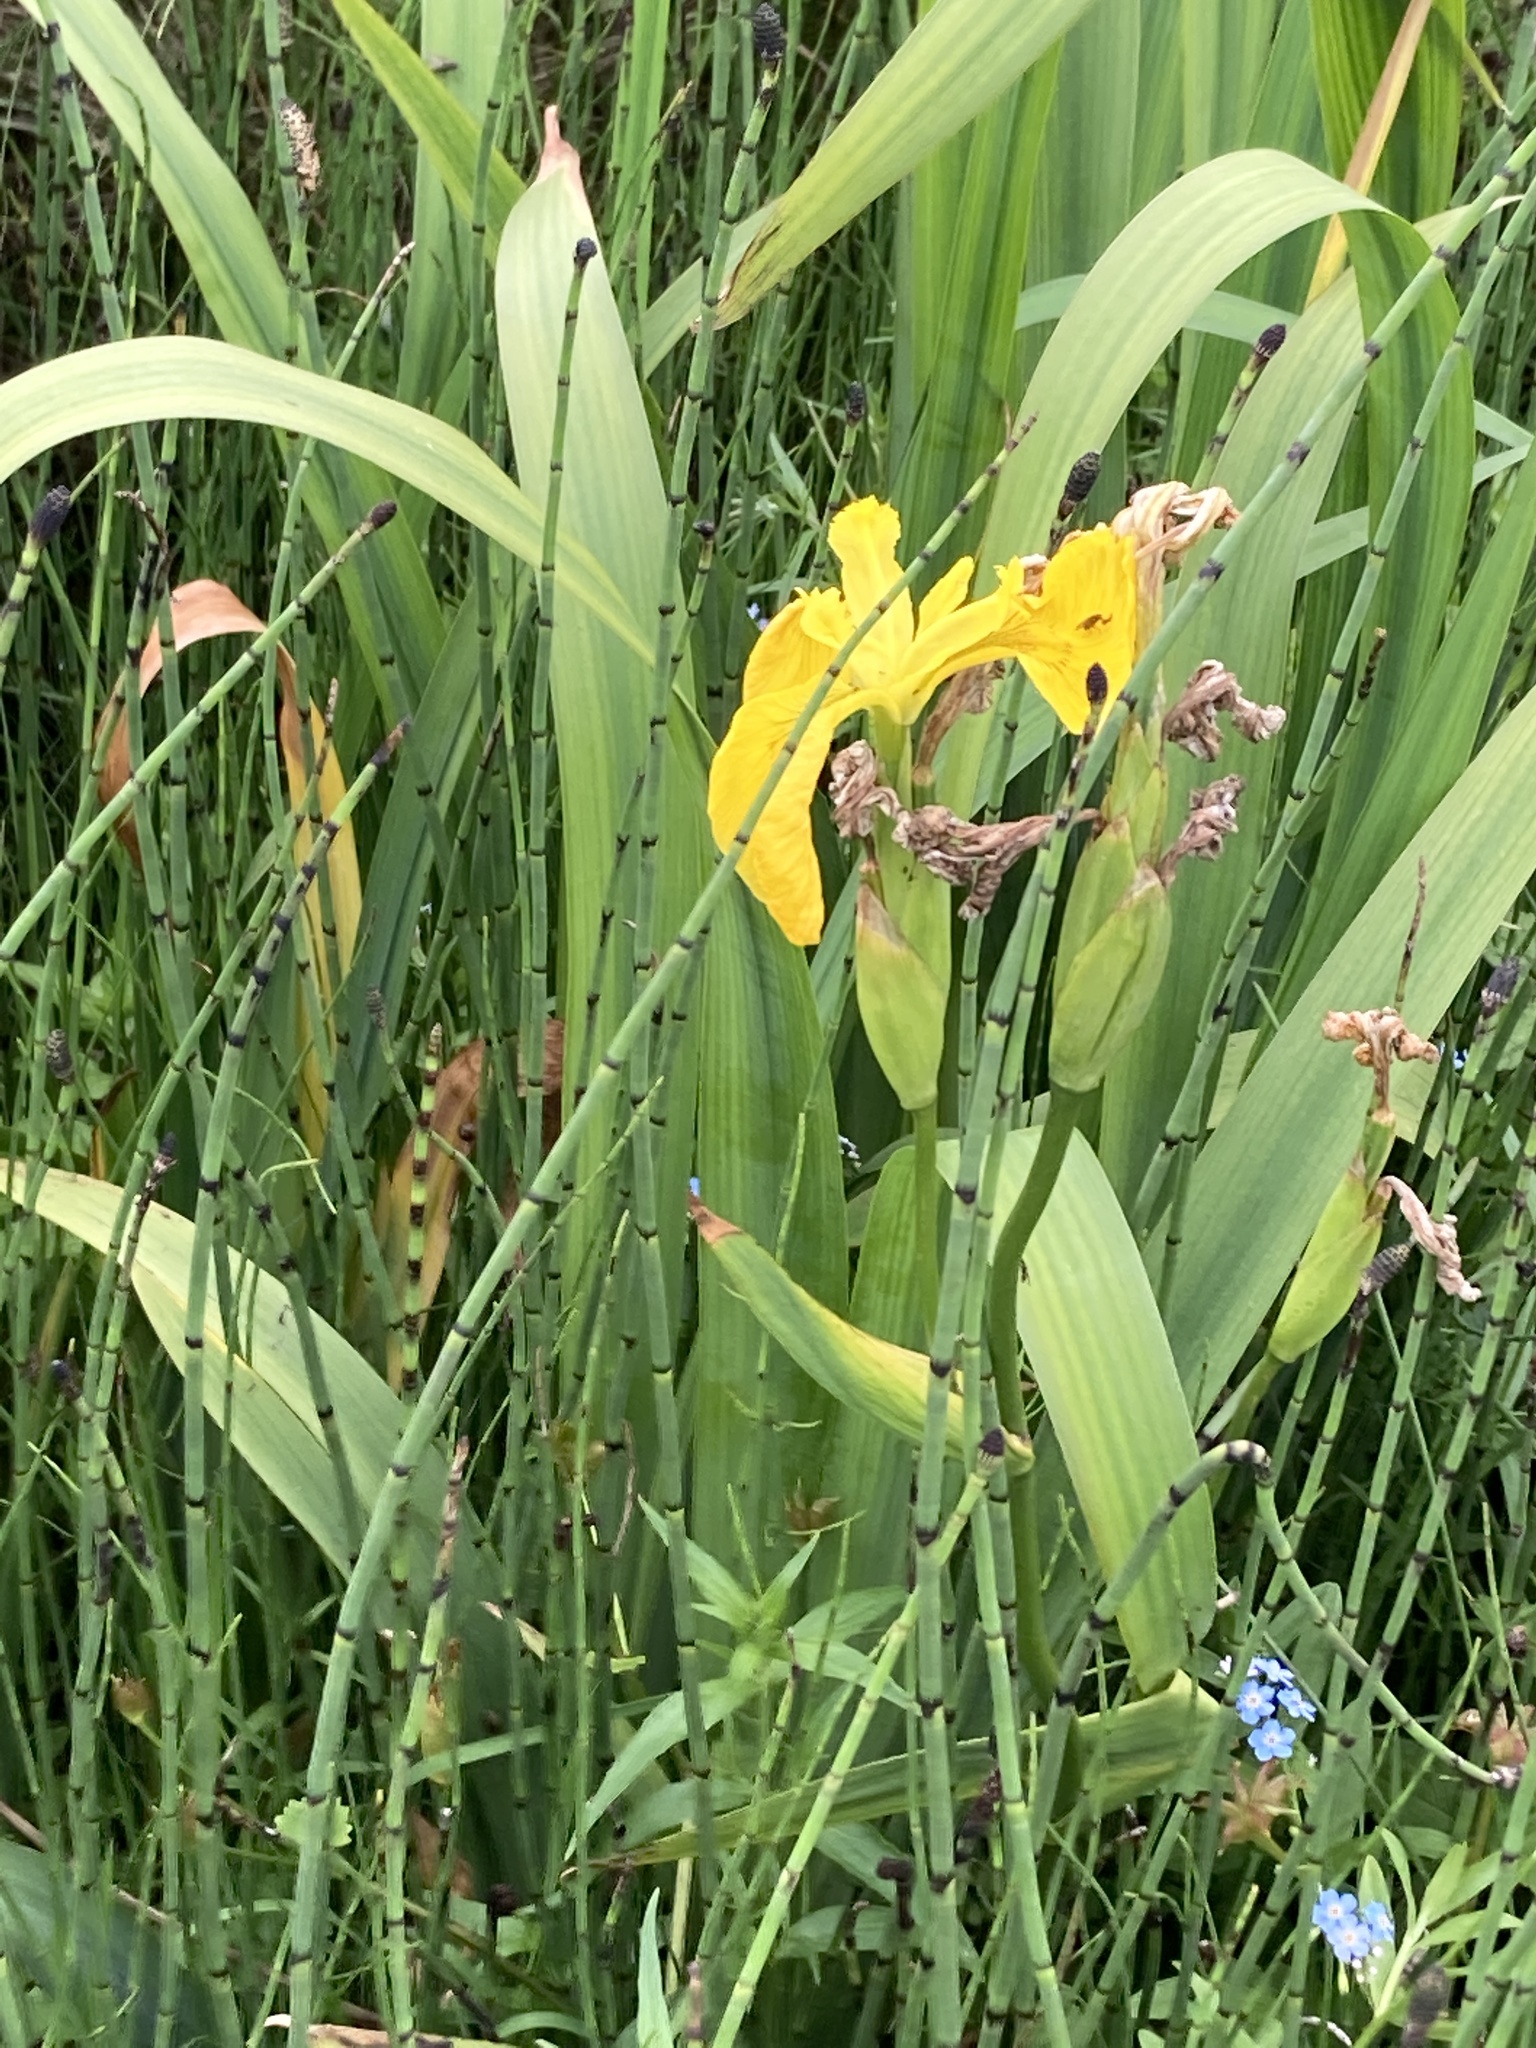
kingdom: Plantae
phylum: Tracheophyta
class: Liliopsida
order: Asparagales
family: Iridaceae
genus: Iris
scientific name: Iris pseudacorus
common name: Yellow flag
